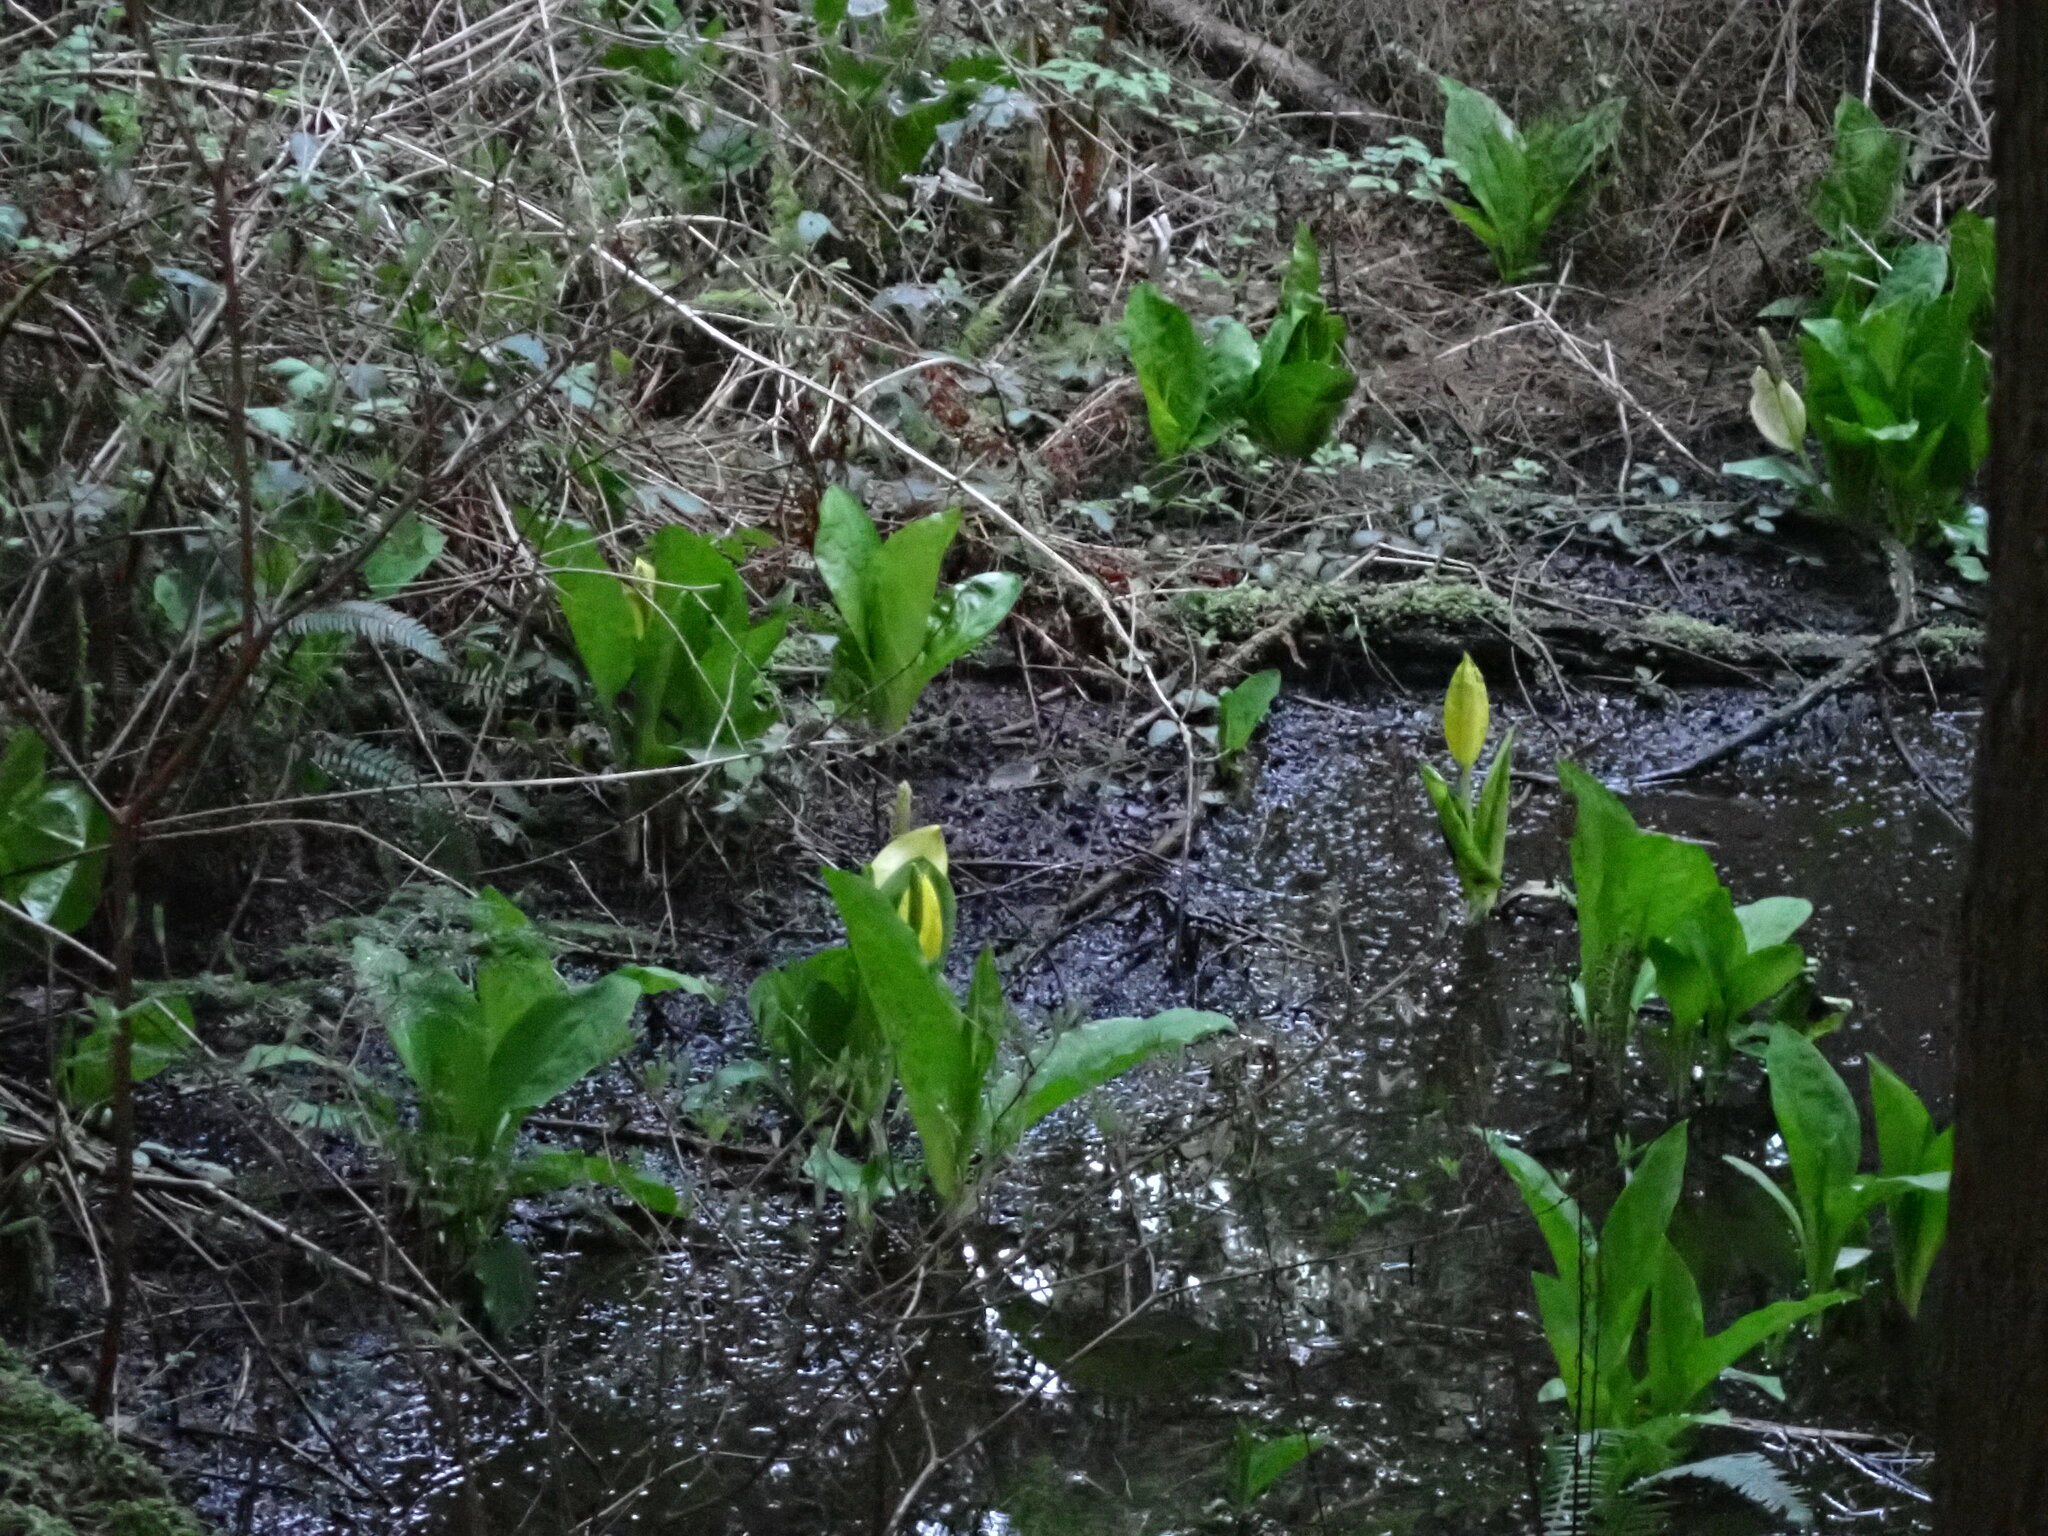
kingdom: Plantae
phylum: Tracheophyta
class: Liliopsida
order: Alismatales
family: Araceae
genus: Lysichiton
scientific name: Lysichiton americanus
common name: American skunk cabbage
